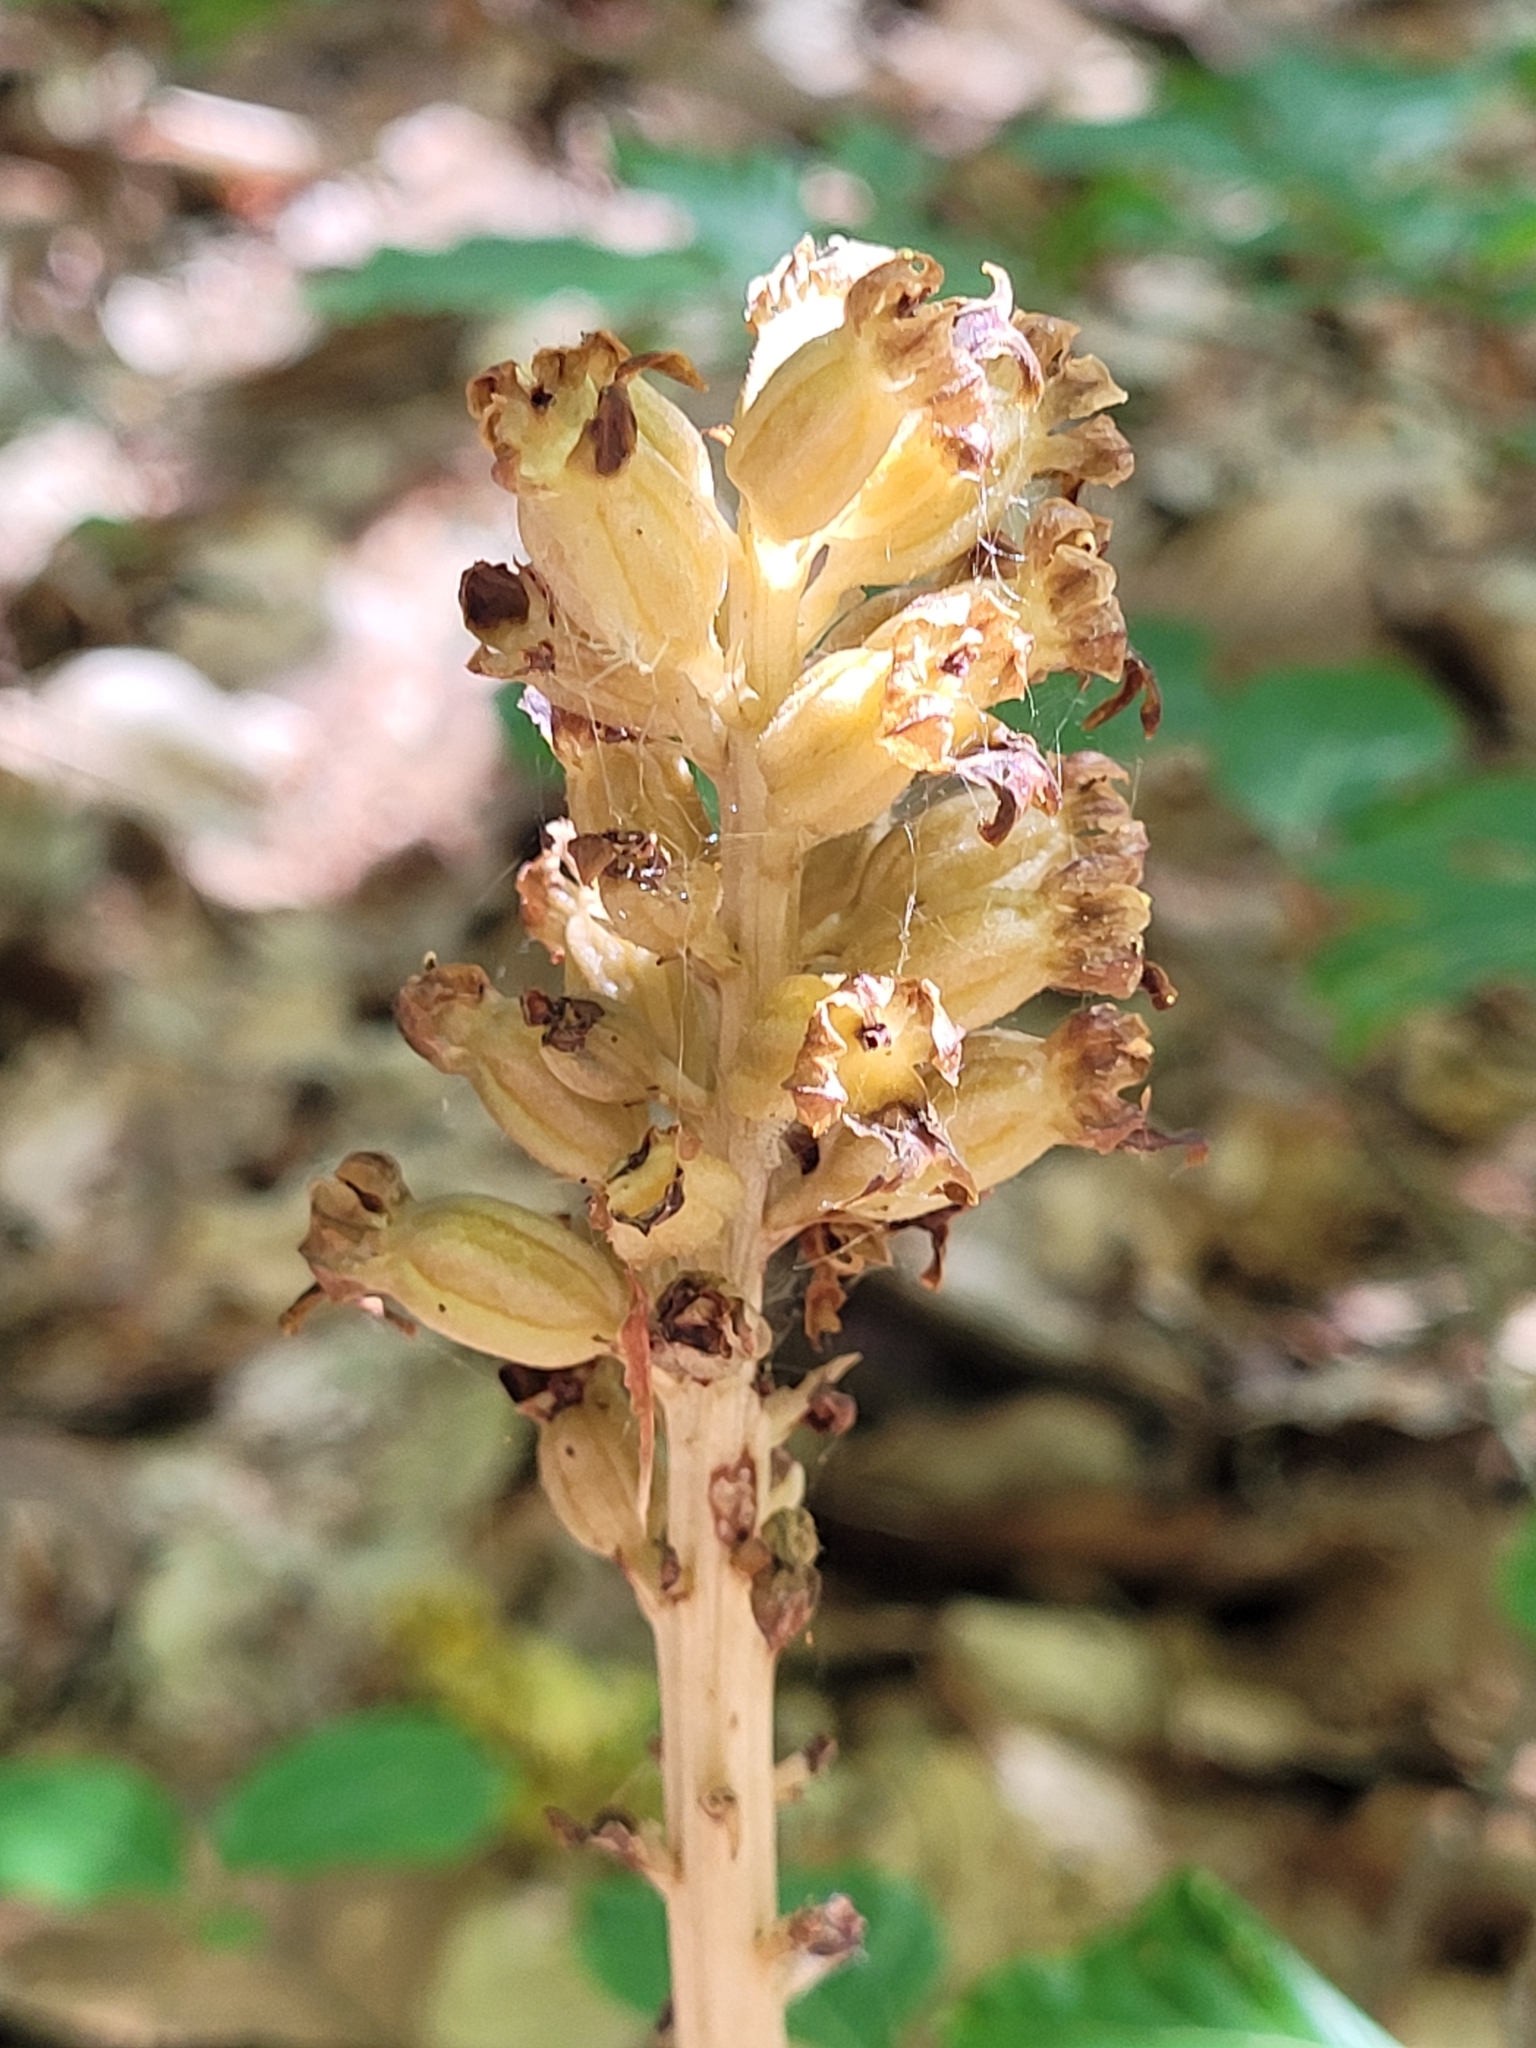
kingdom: Plantae
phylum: Tracheophyta
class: Liliopsida
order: Asparagales
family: Orchidaceae
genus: Neottia
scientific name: Neottia nidus-avis
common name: Bird's-nest orchid
